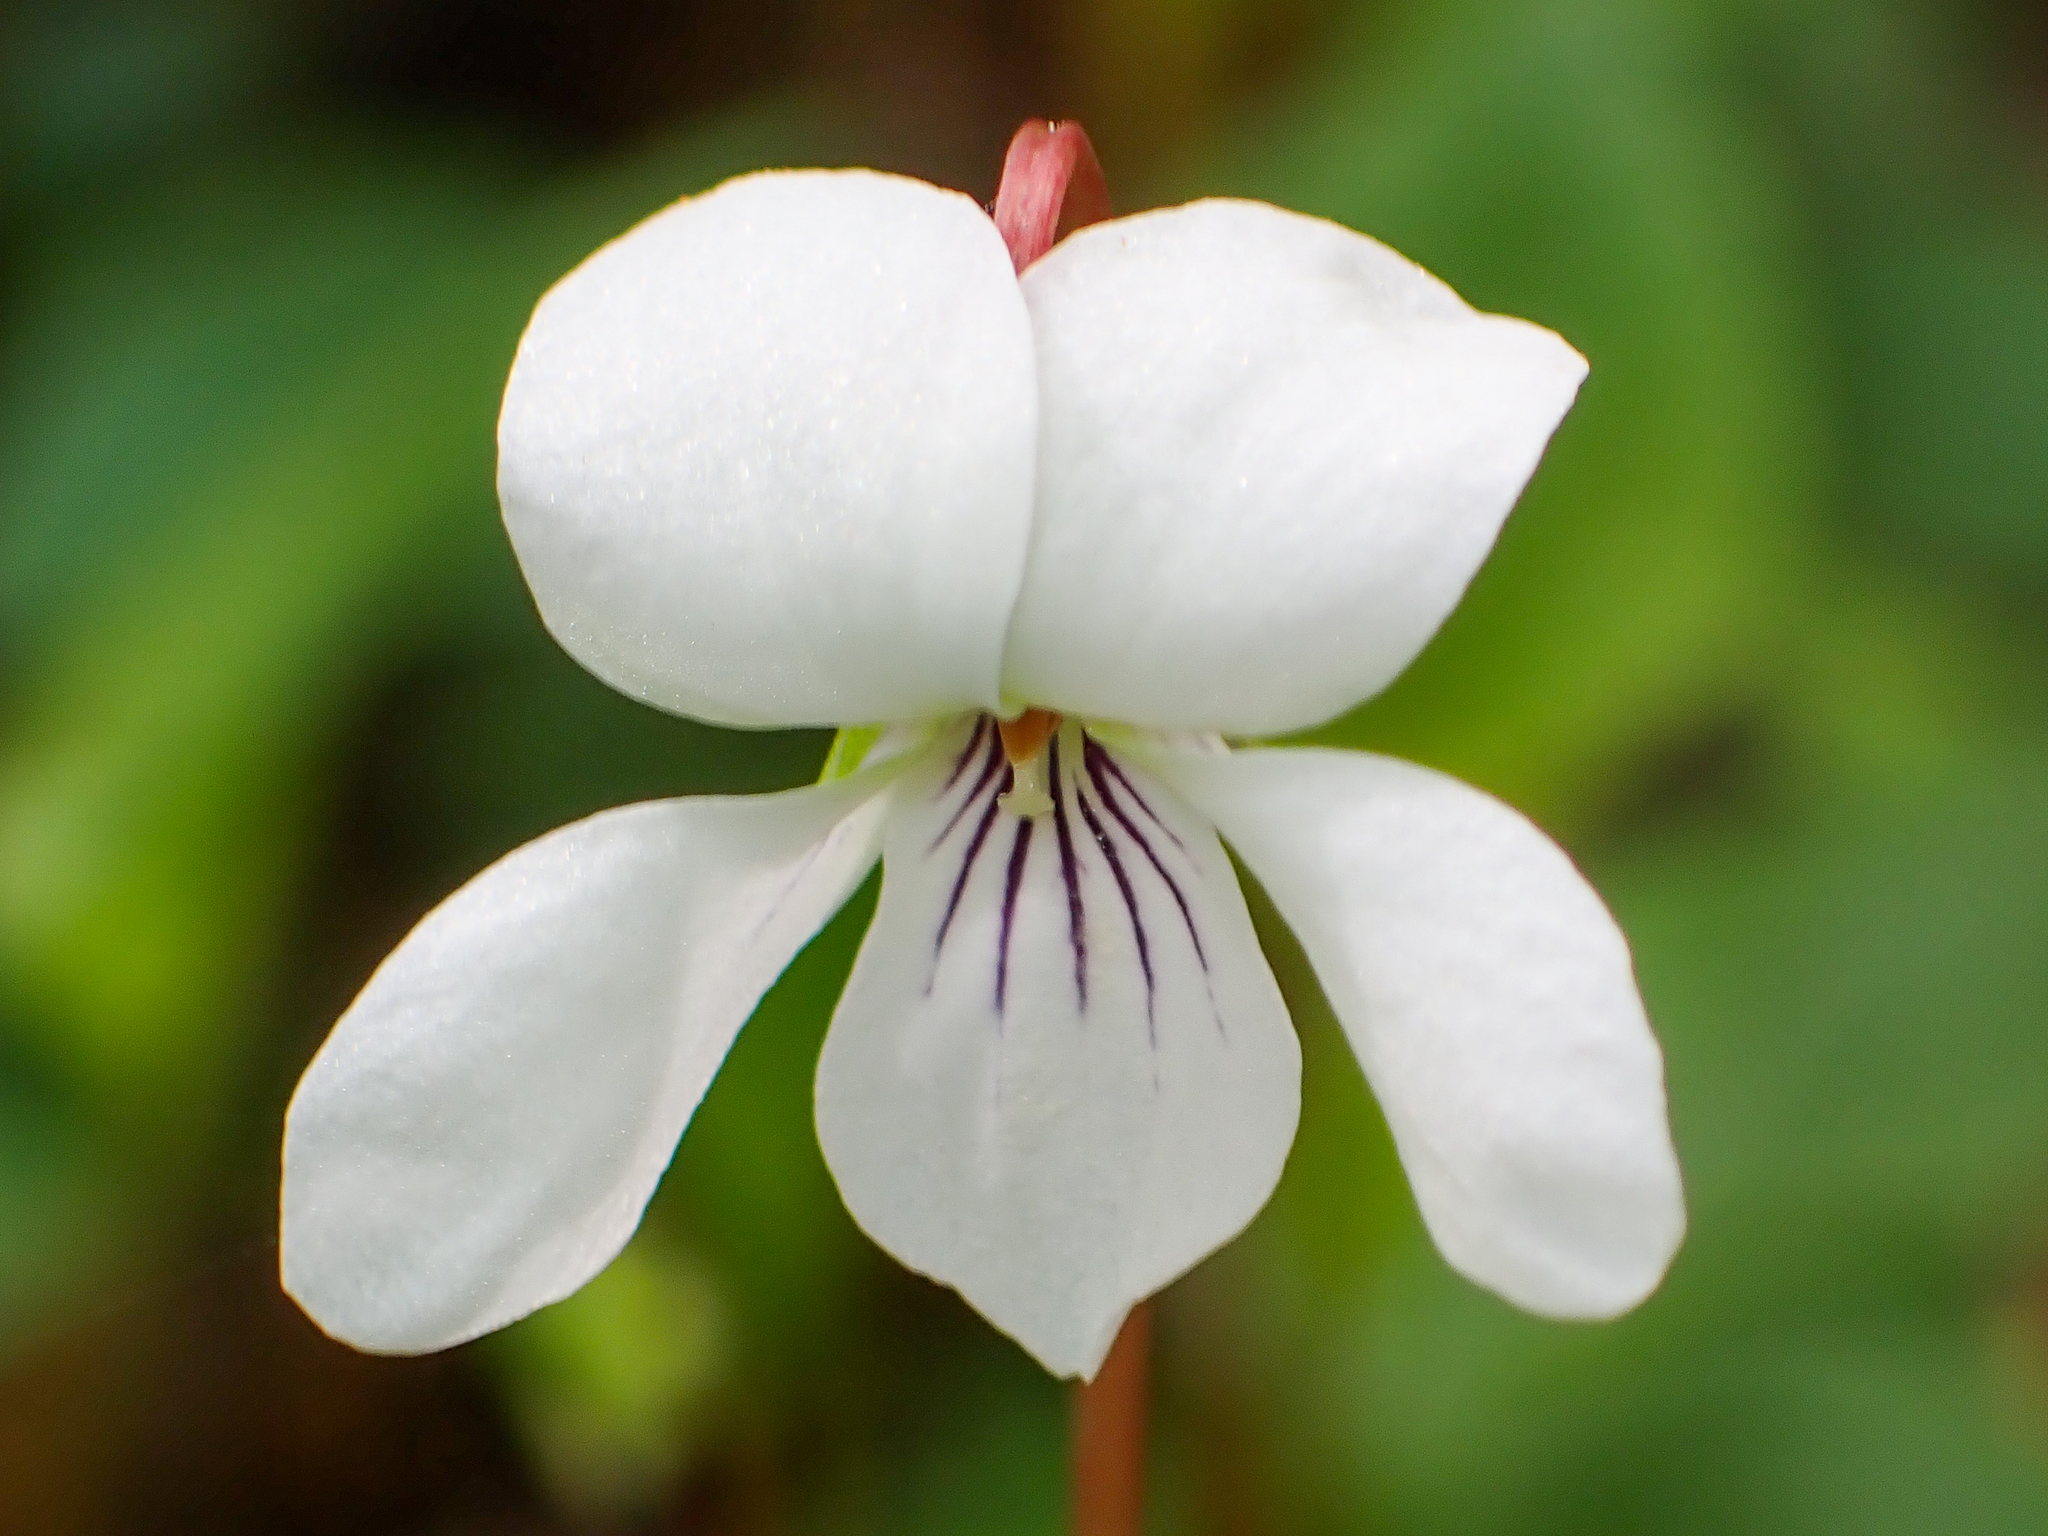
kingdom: Plantae
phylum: Tracheophyta
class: Magnoliopsida
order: Malpighiales
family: Violaceae
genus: Viola
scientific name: Viola primulifolia
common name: Primrose-leaf violet
